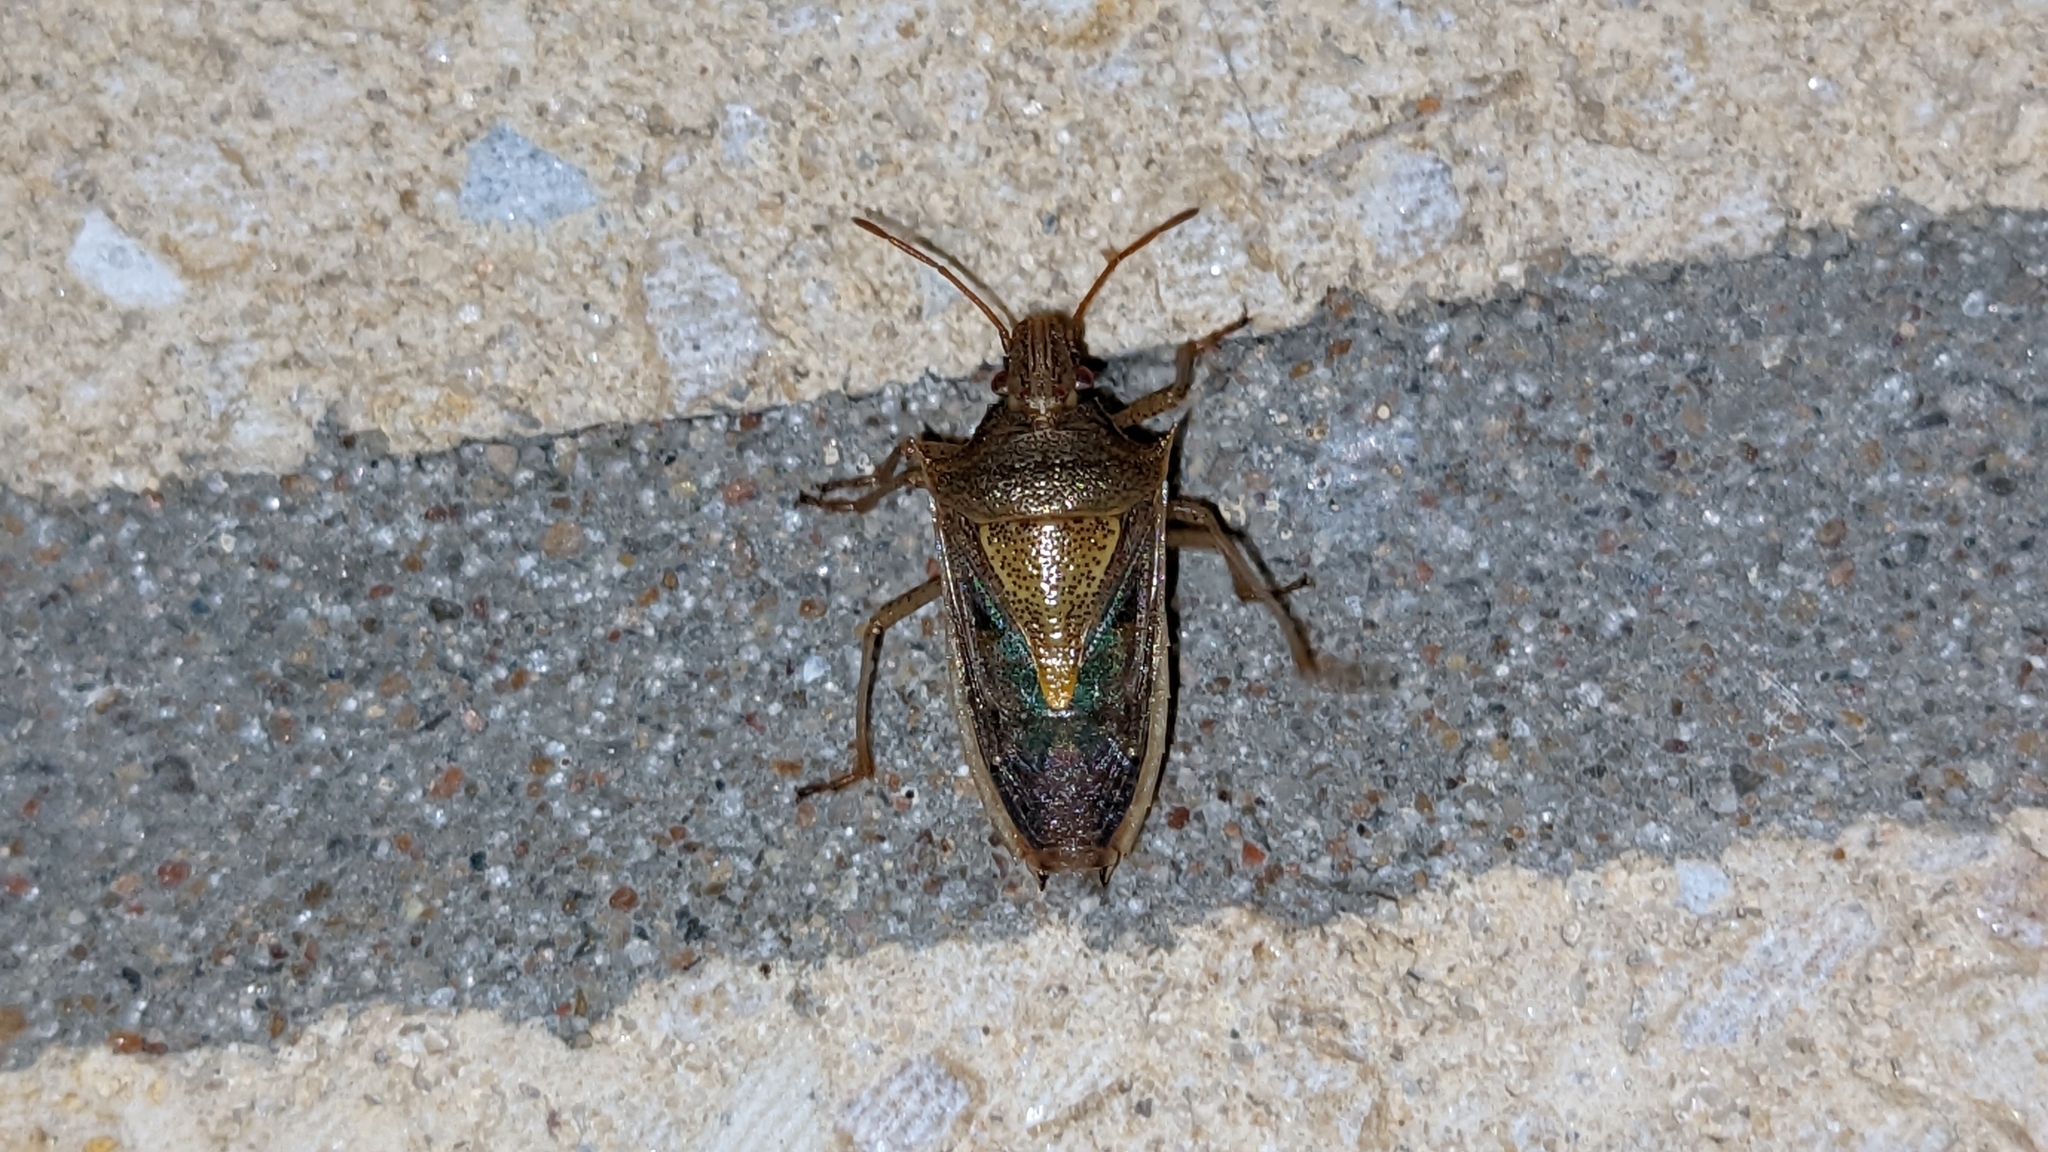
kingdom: Animalia
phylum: Arthropoda
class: Insecta
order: Hemiptera
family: Pentatomidae
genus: Oebalus
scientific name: Oebalus pugnax
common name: Rice stink bug
